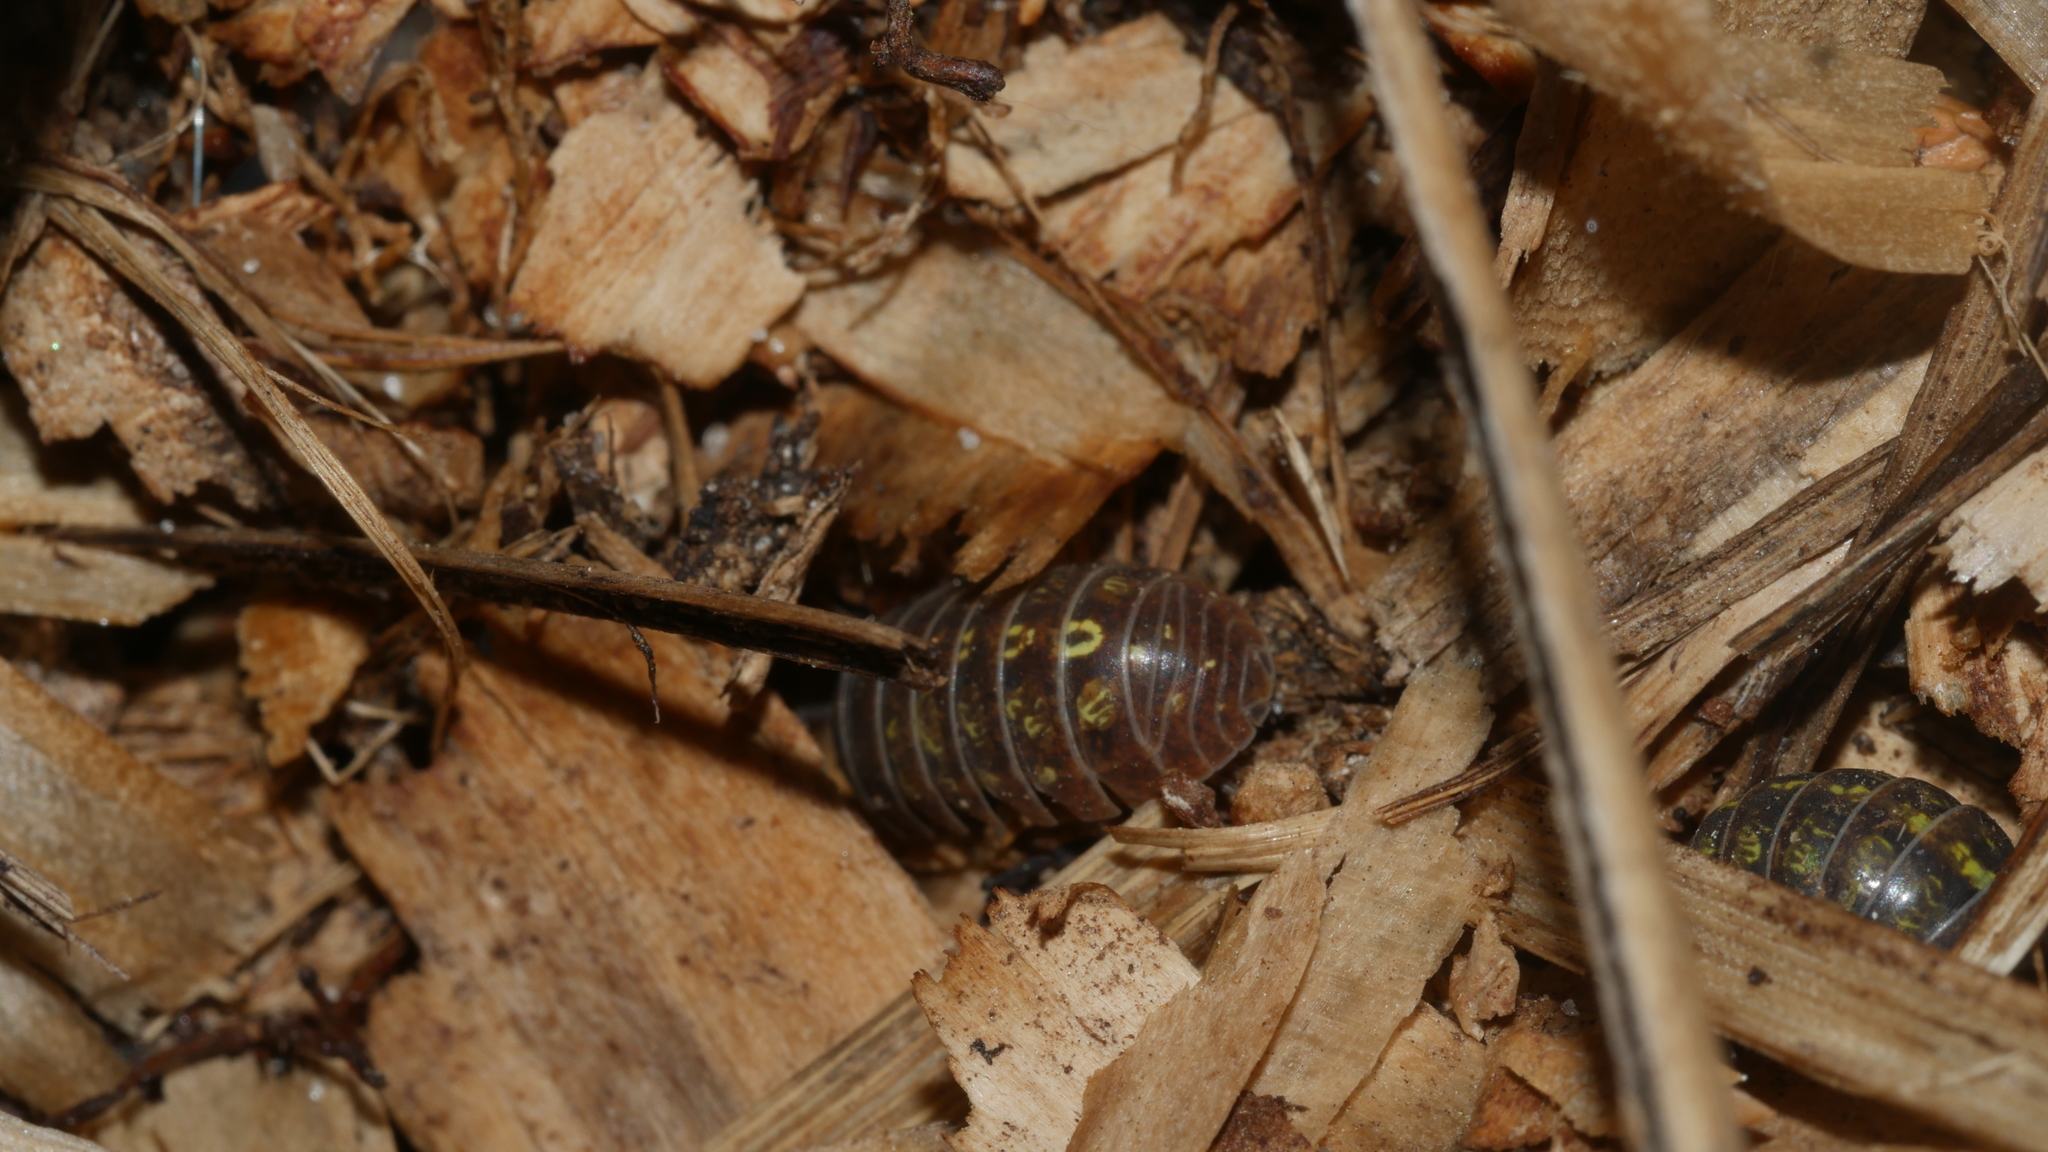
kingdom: Animalia
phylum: Arthropoda
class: Malacostraca
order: Isopoda
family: Armadillidiidae
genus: Armadillidium
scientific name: Armadillidium vulgare
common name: Common pill woodlouse
